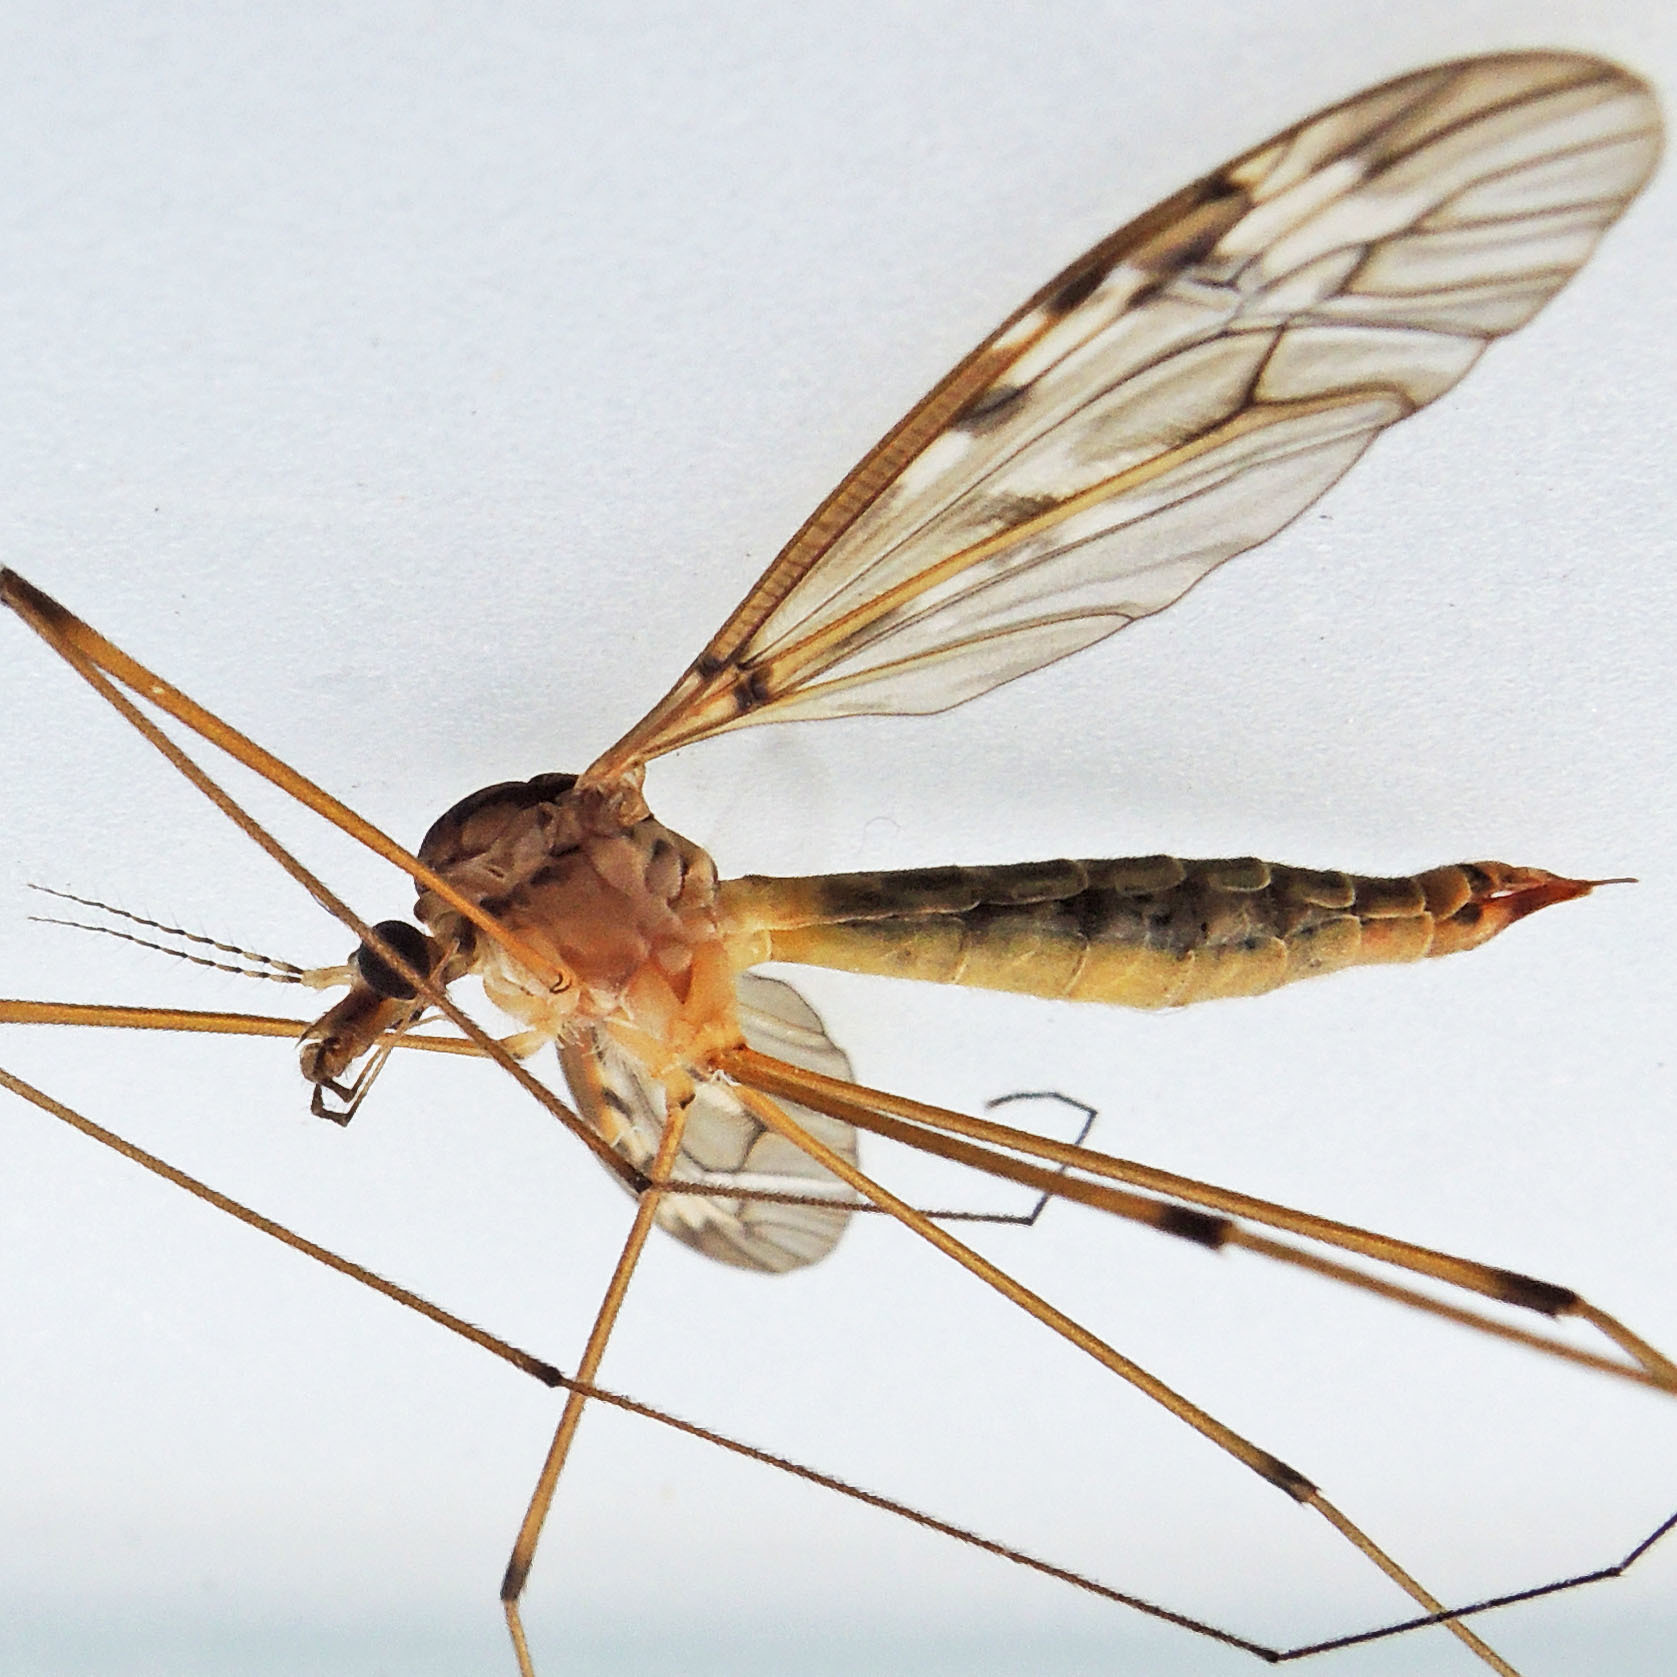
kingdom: Animalia
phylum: Arthropoda
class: Insecta
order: Diptera
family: Tipulidae
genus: Tipula
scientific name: Tipula borealis
